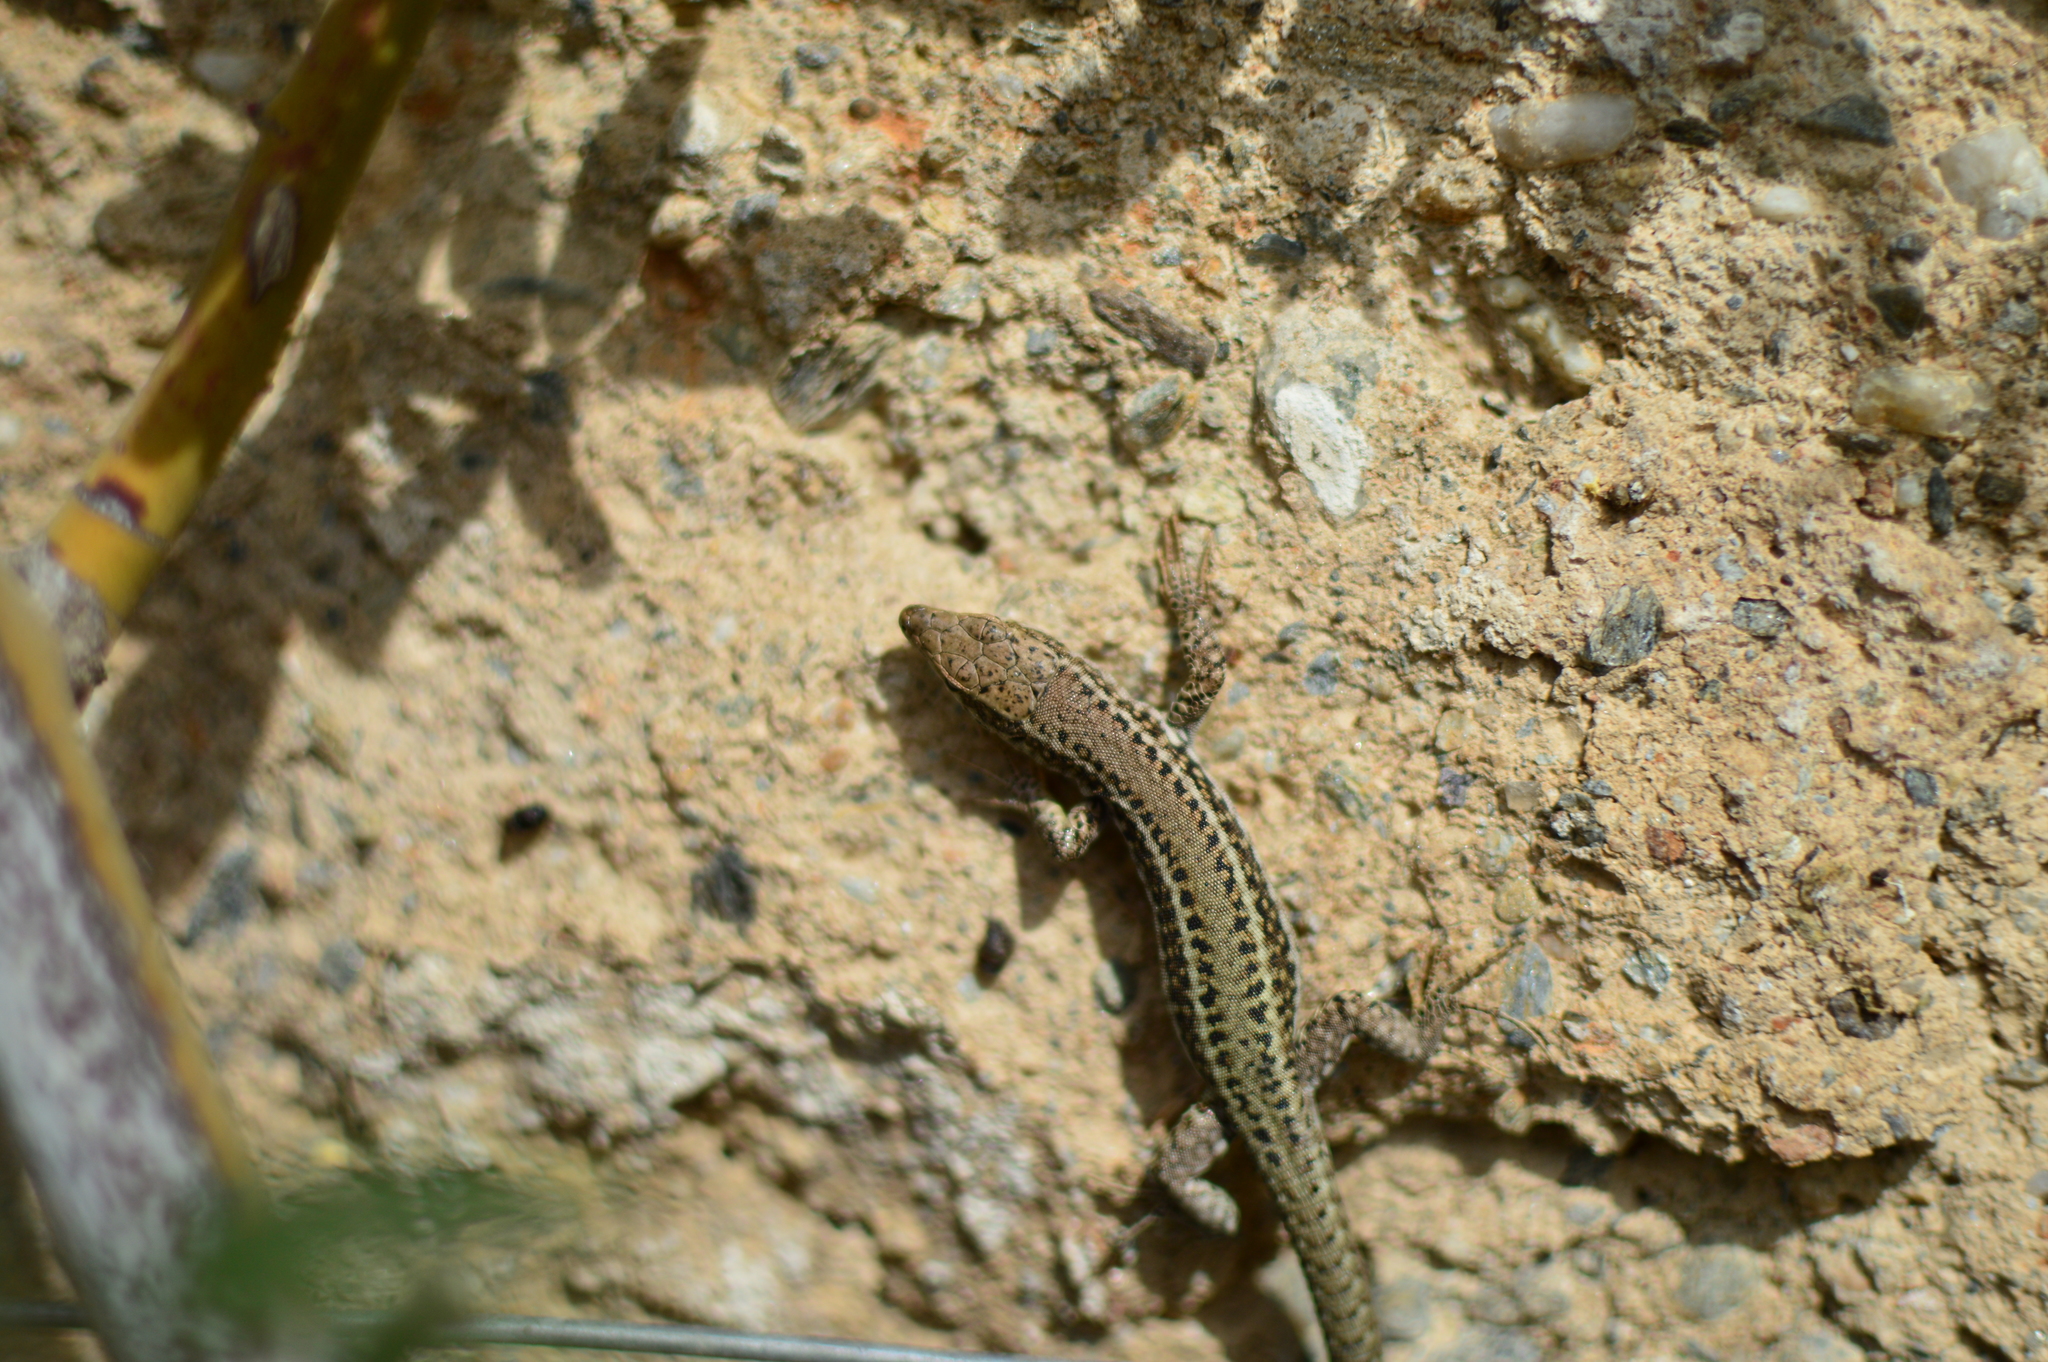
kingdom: Animalia
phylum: Chordata
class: Squamata
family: Lacertidae
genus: Podarcis
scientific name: Podarcis vaucheri
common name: Vaucher's wall lizard
